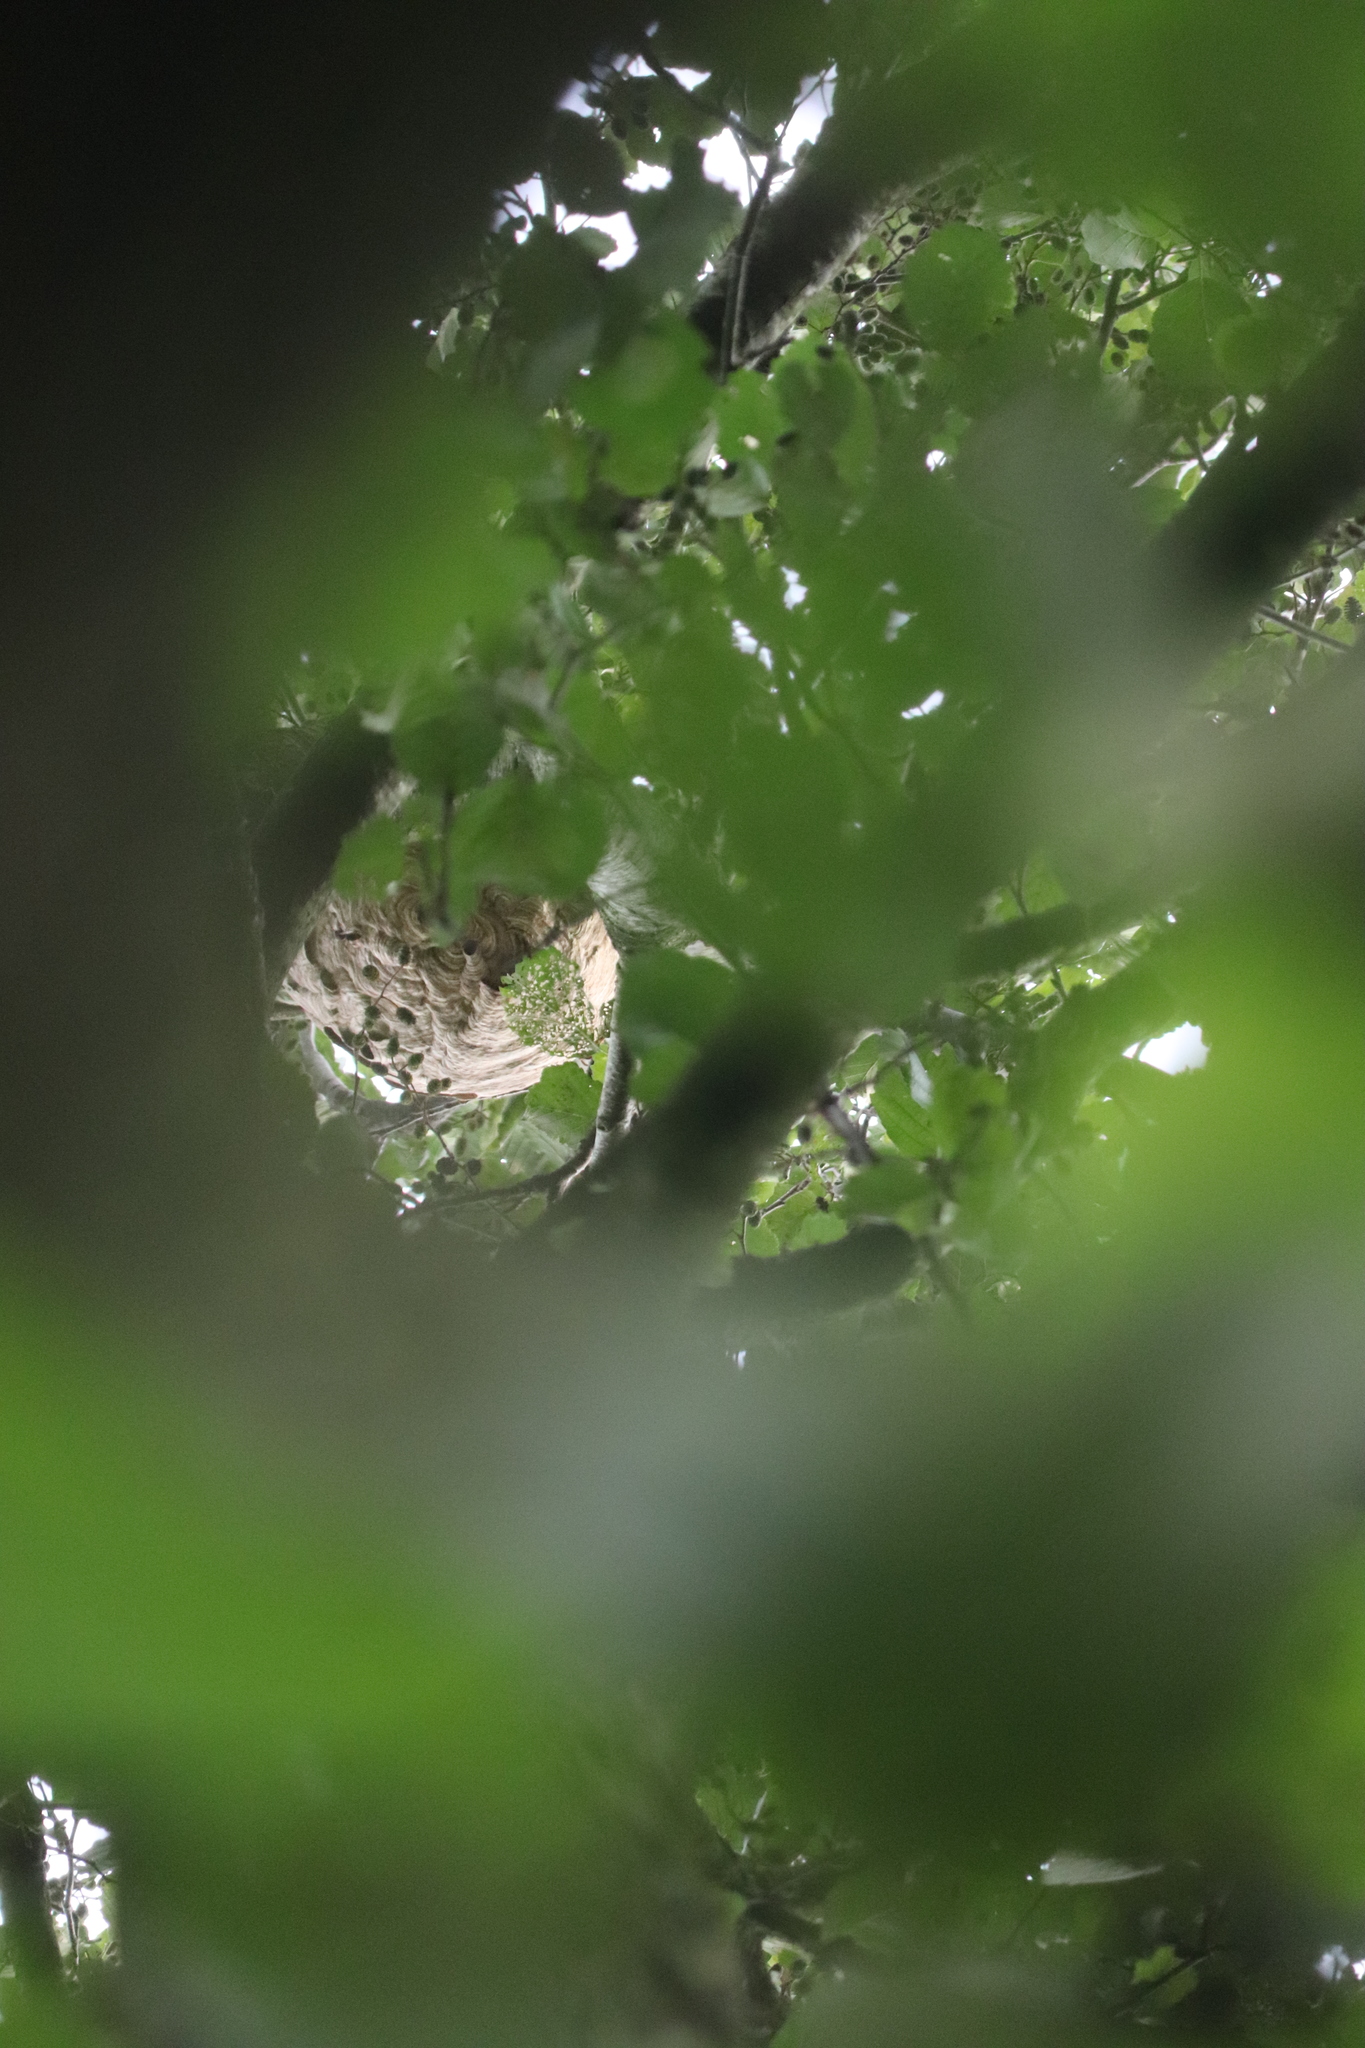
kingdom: Animalia
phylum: Arthropoda
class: Insecta
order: Hymenoptera
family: Vespidae
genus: Vespa
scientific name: Vespa velutina
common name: Asian hornet
